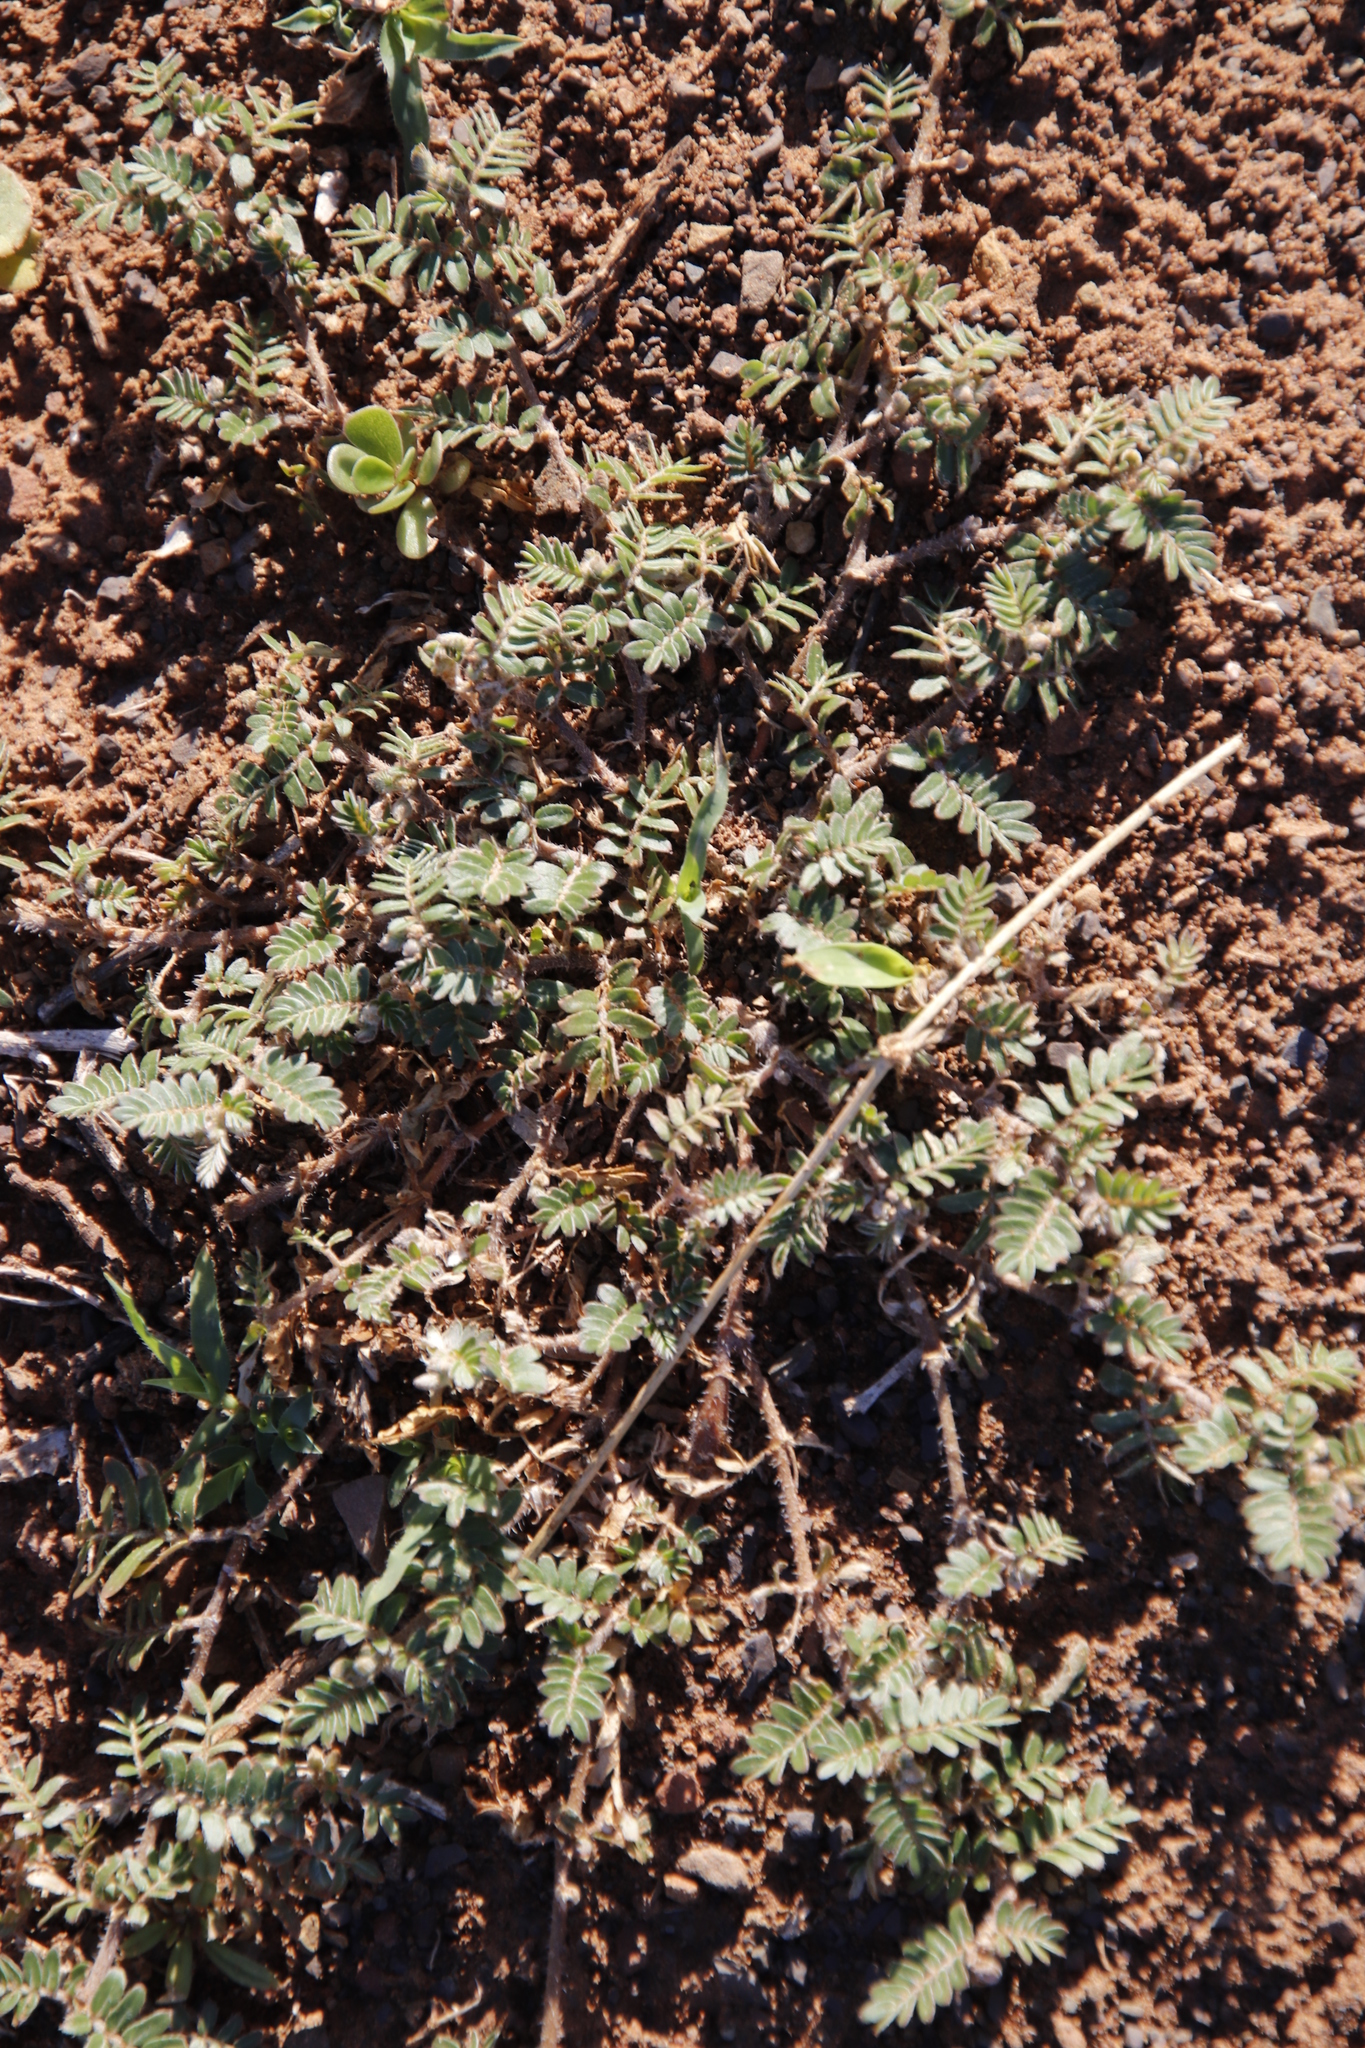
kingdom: Plantae
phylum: Tracheophyta
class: Magnoliopsida
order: Zygophyllales
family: Zygophyllaceae
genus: Tribulus
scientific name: Tribulus terrestris
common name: Puncturevine
